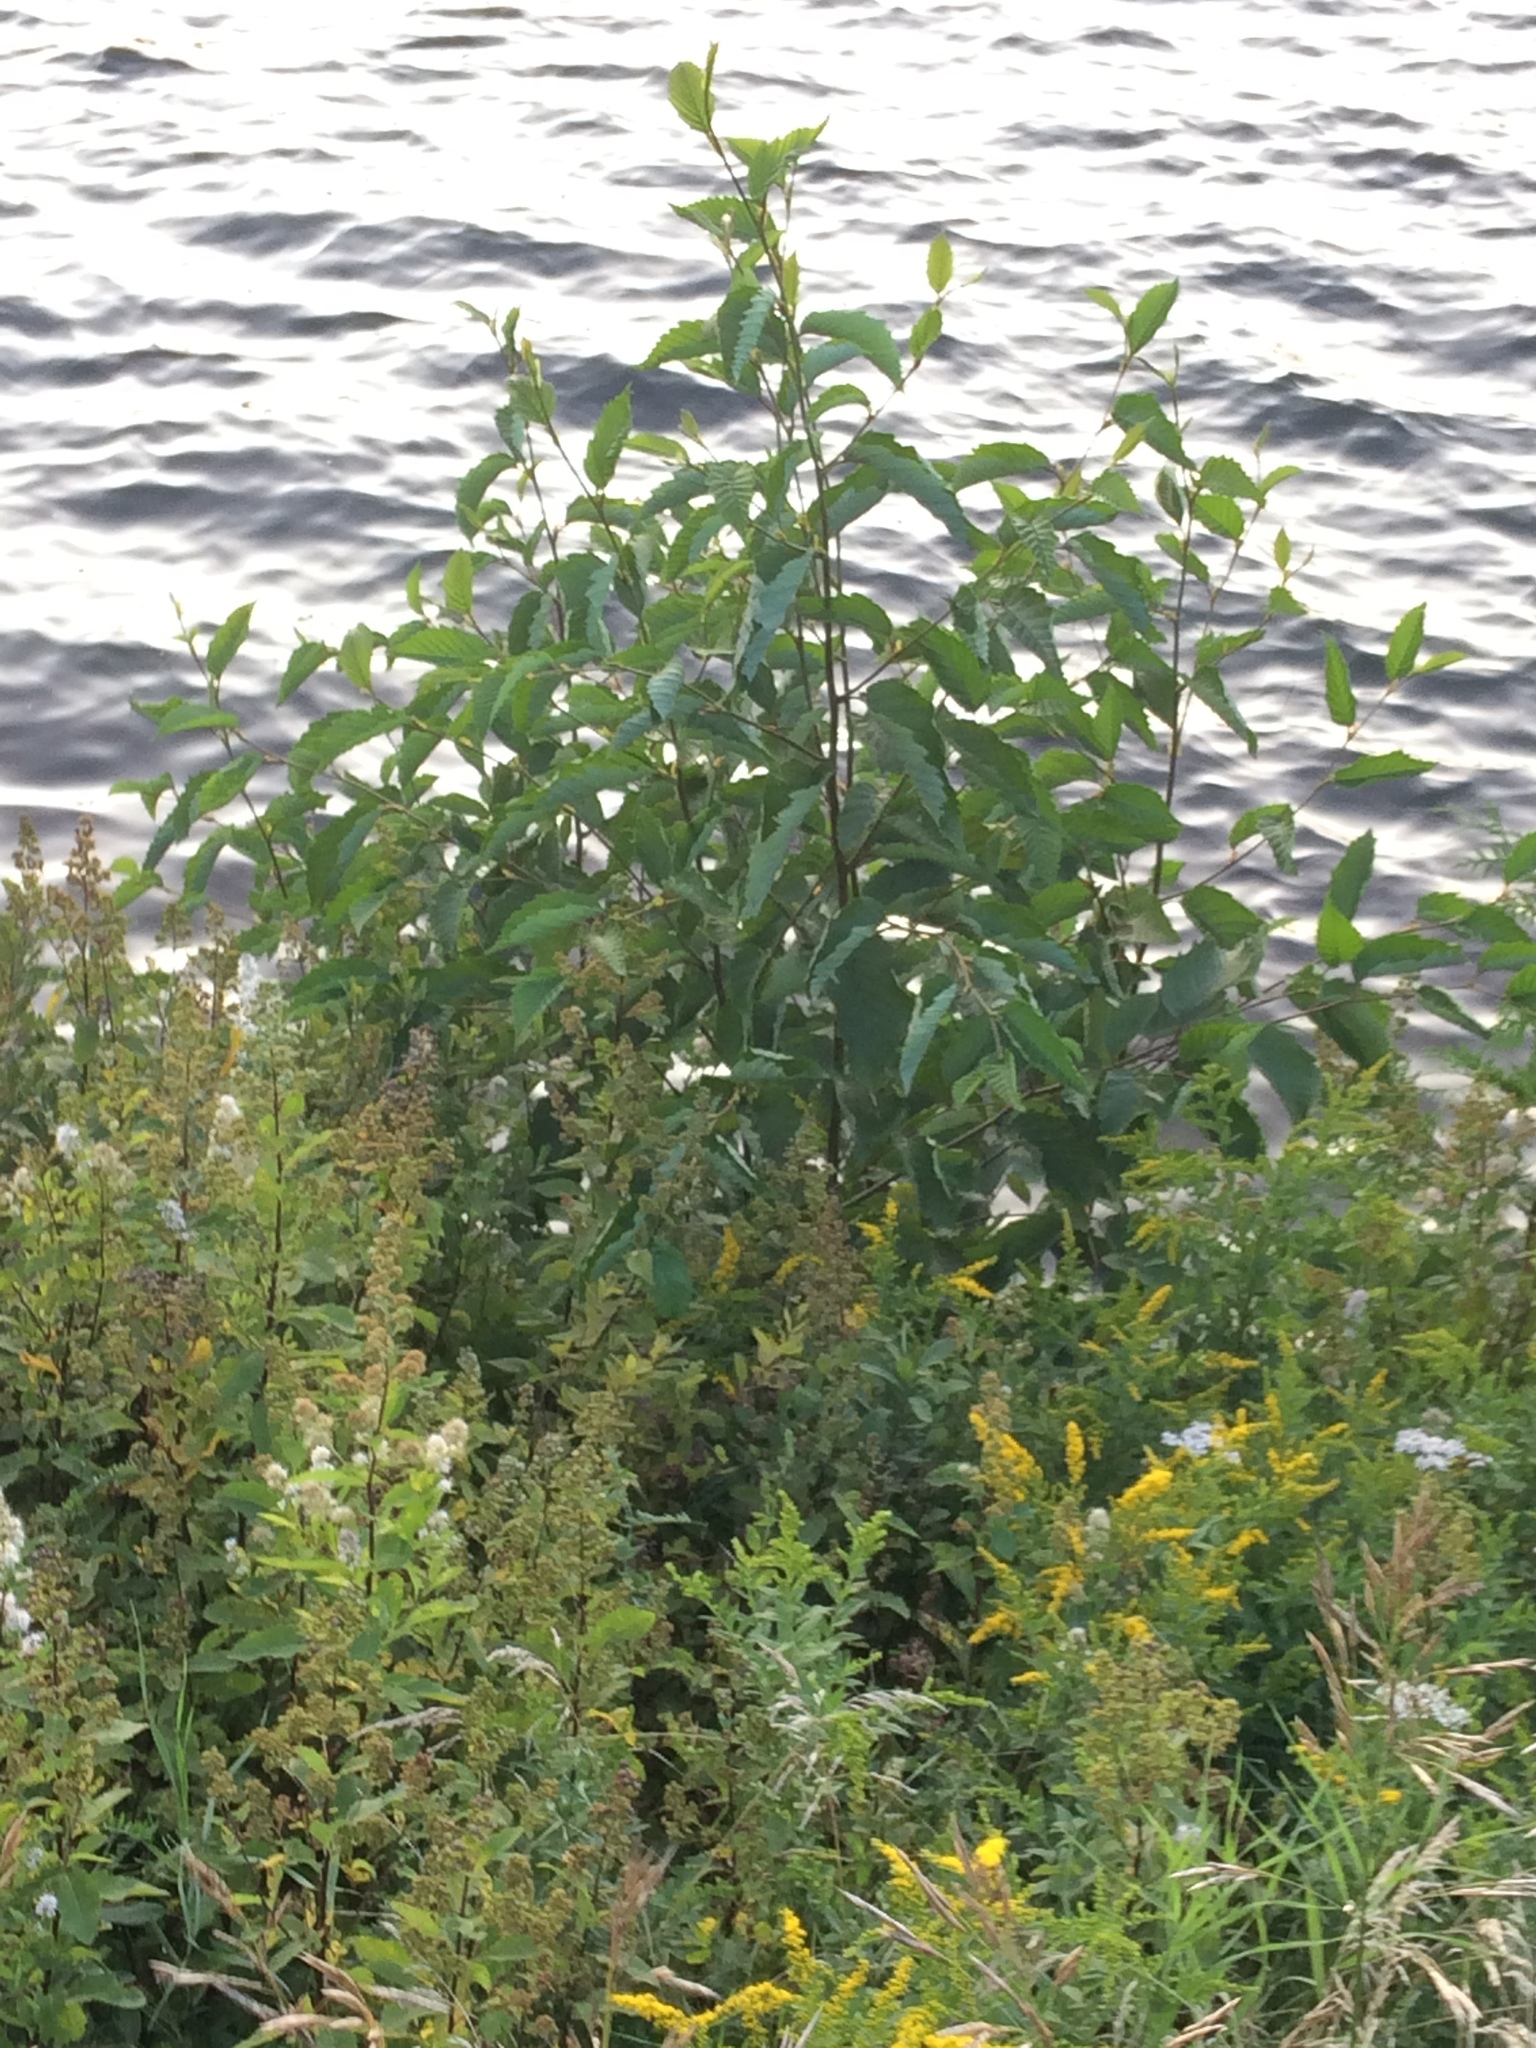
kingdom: Plantae
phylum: Tracheophyta
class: Magnoliopsida
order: Fagales
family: Betulaceae
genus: Alnus
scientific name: Alnus incana
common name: Grey alder
